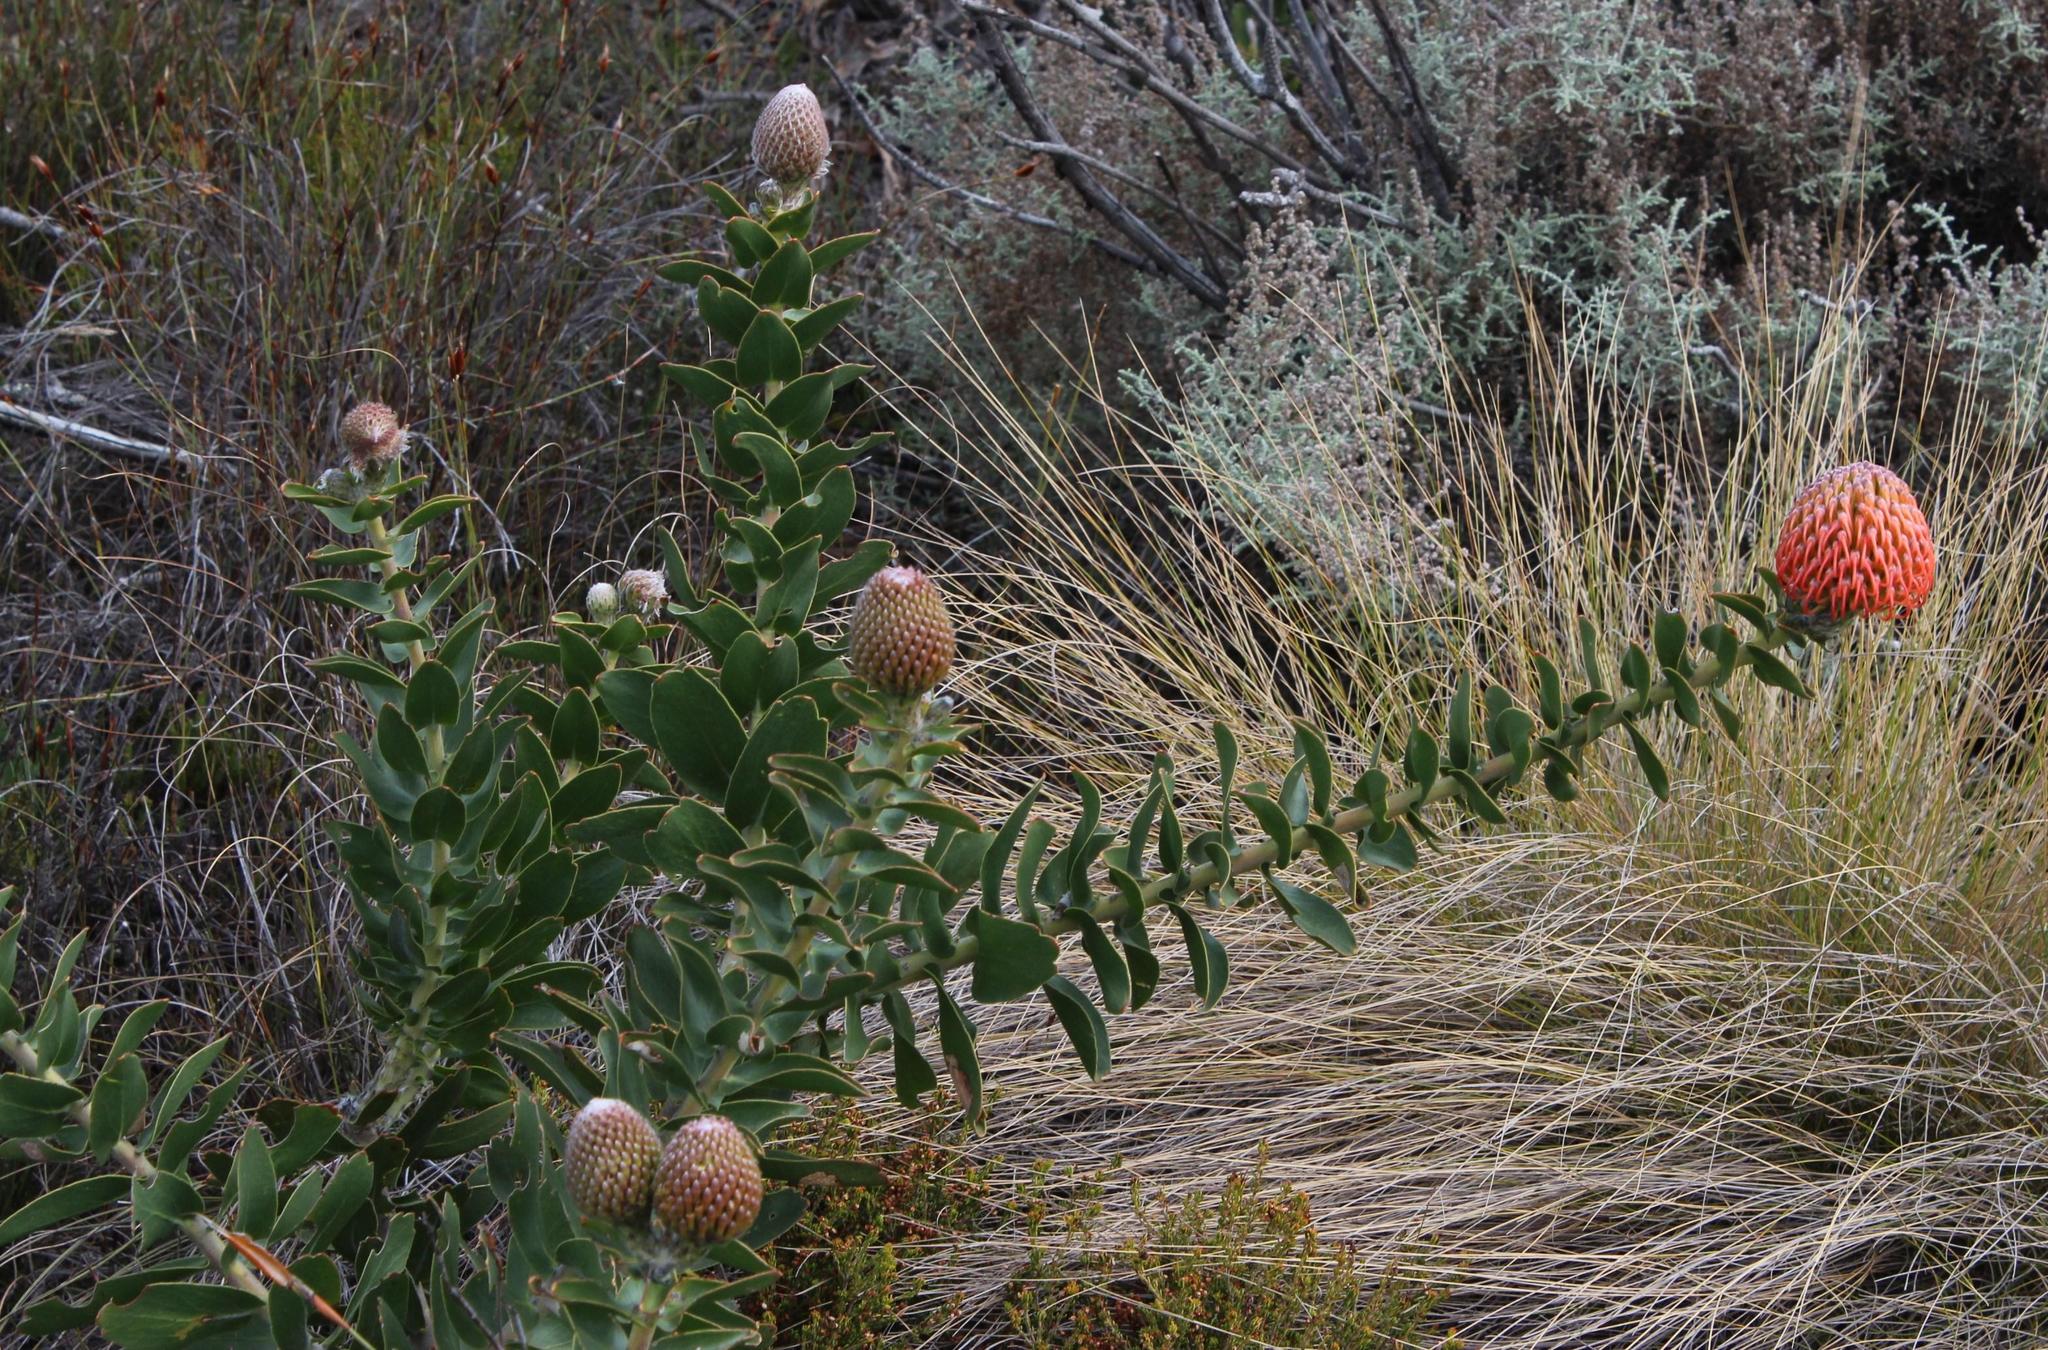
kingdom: Plantae
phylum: Tracheophyta
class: Magnoliopsida
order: Proteales
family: Proteaceae
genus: Leucospermum
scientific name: Leucospermum cordifolium
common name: Red pincushion-protea
